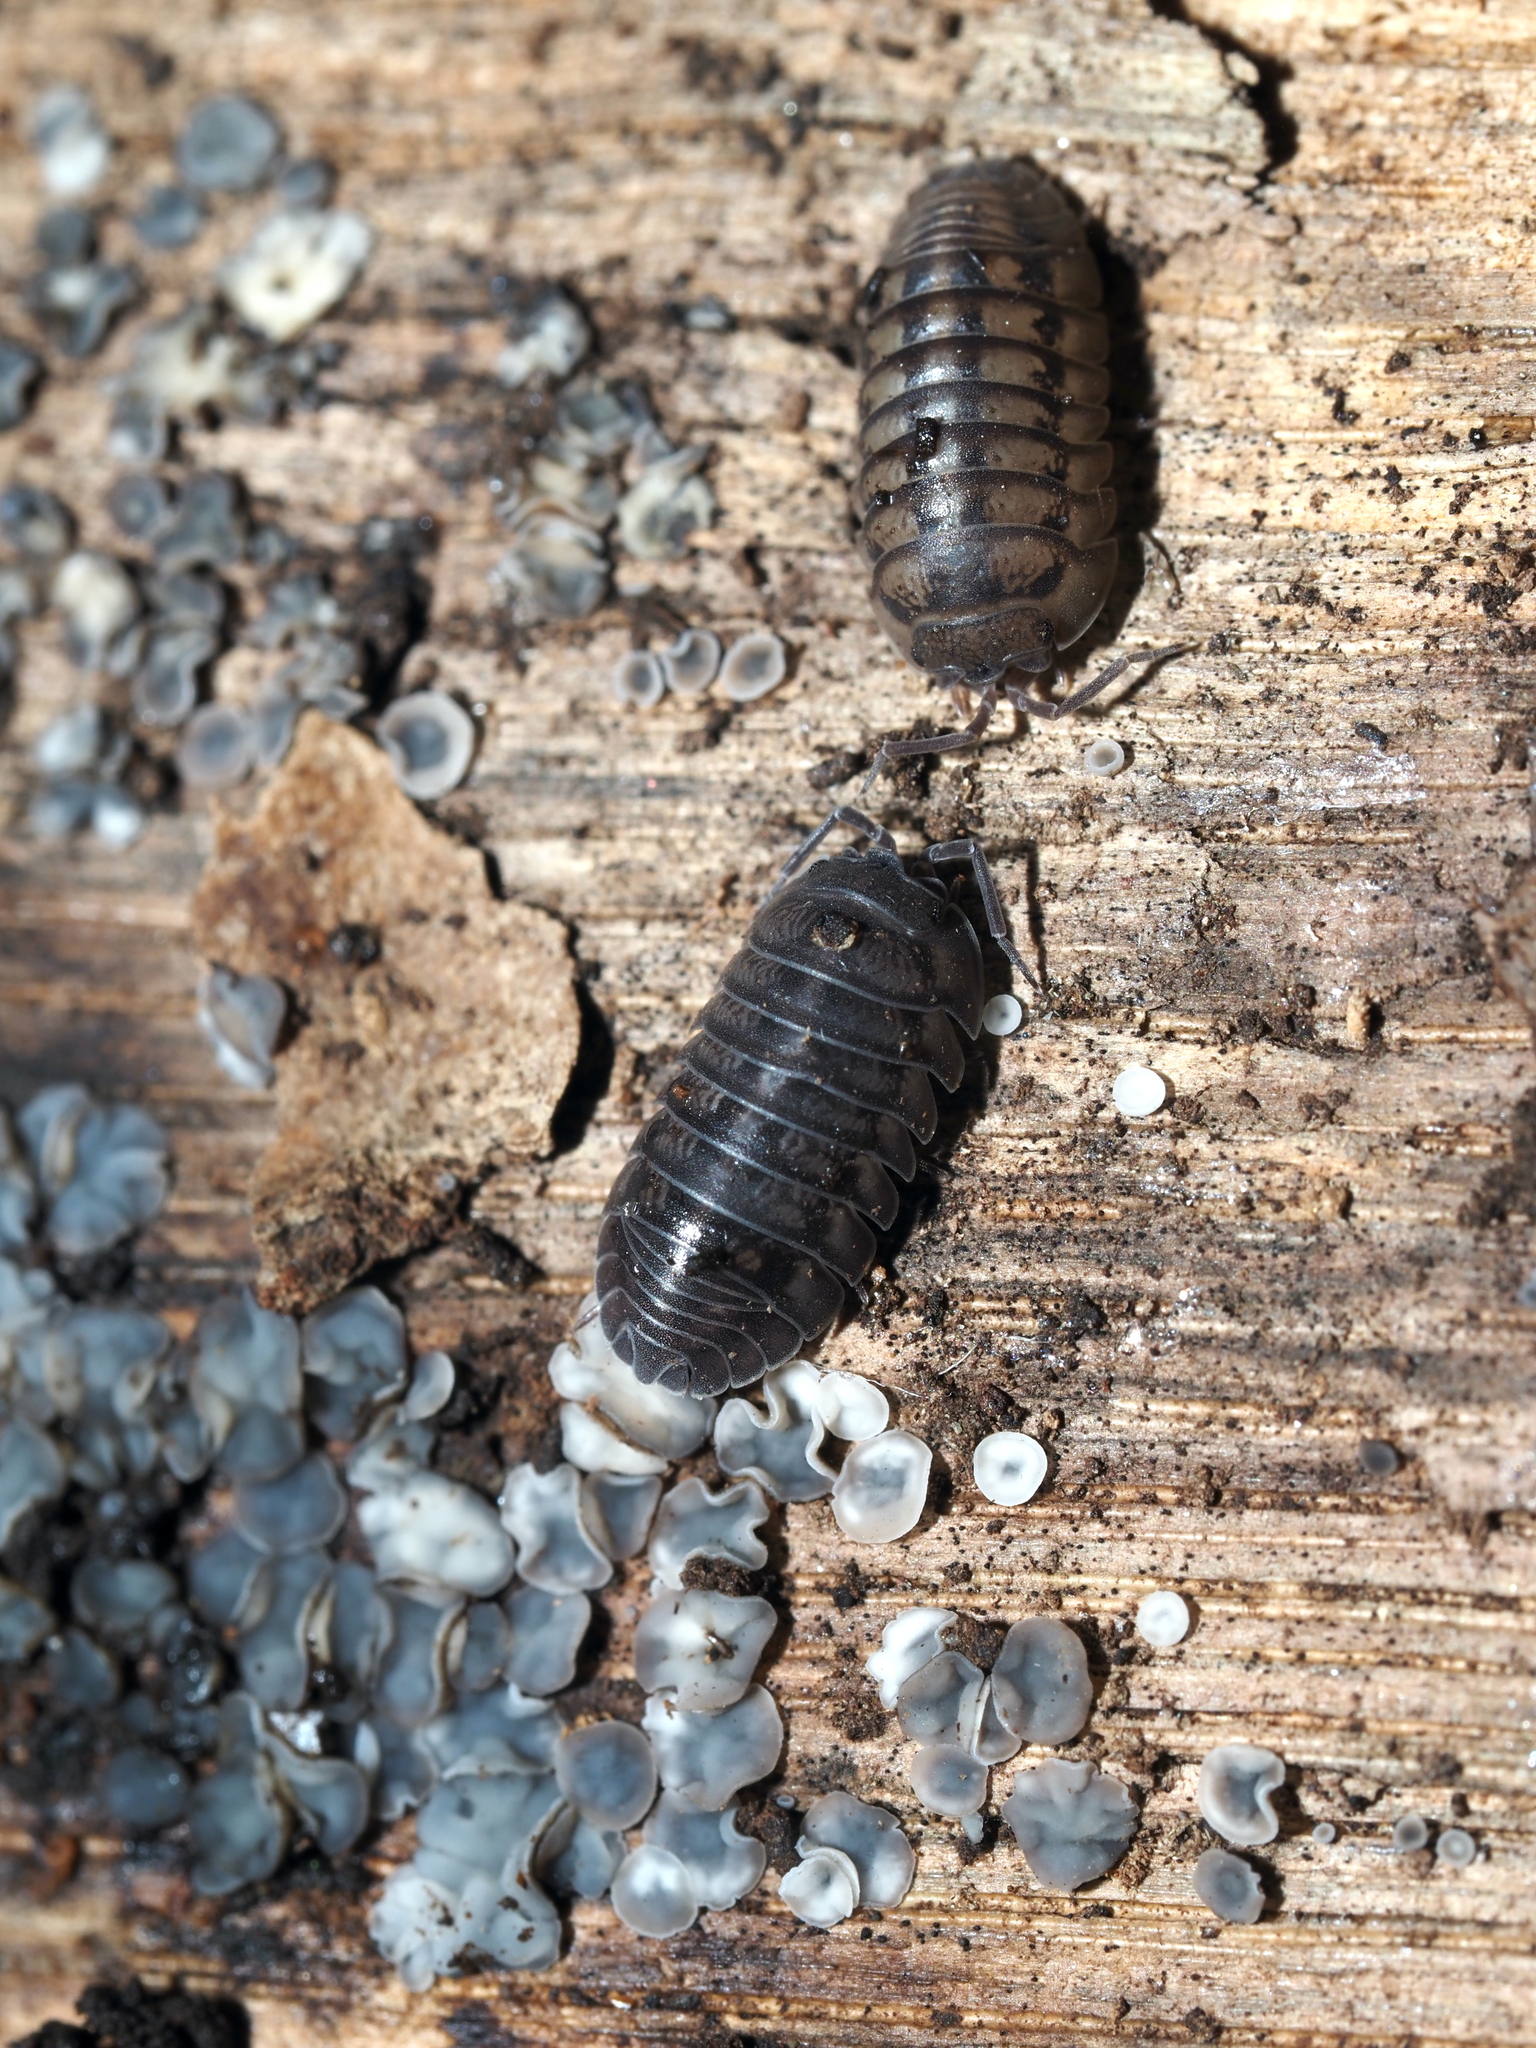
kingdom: Animalia
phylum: Arthropoda
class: Malacostraca
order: Isopoda
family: Armadillidiidae
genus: Armadillidium
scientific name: Armadillidium nasatum
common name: Isopod
